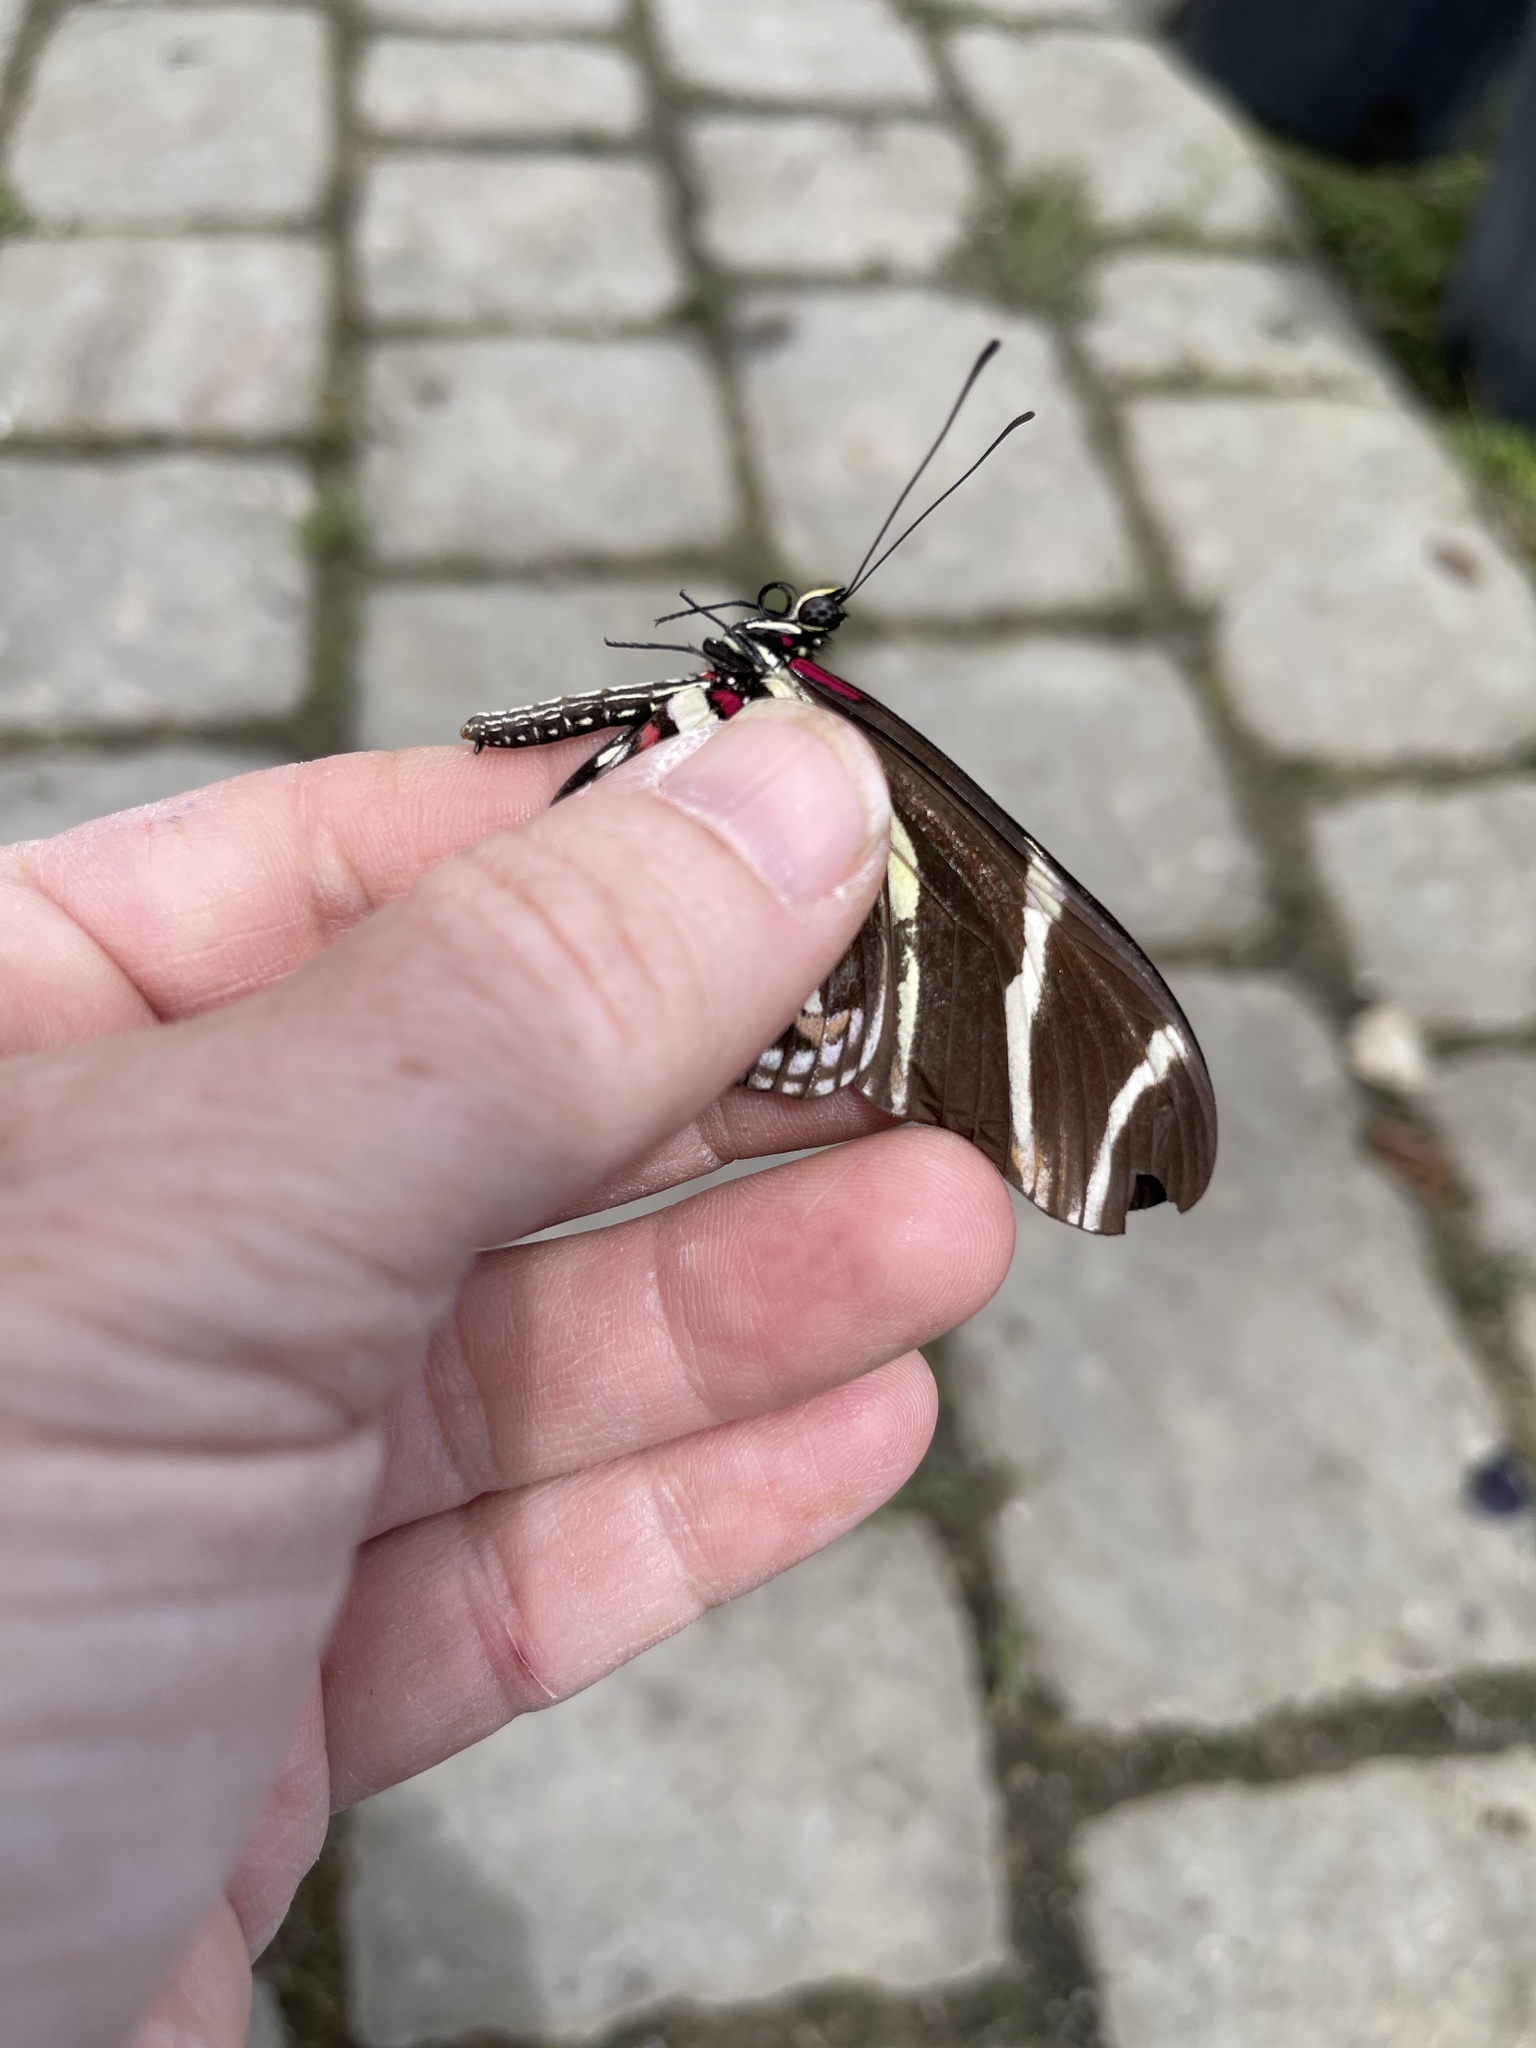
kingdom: Animalia
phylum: Arthropoda
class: Insecta
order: Lepidoptera
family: Nymphalidae
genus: Heliconius
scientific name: Heliconius charithonia
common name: Zebra long wing
